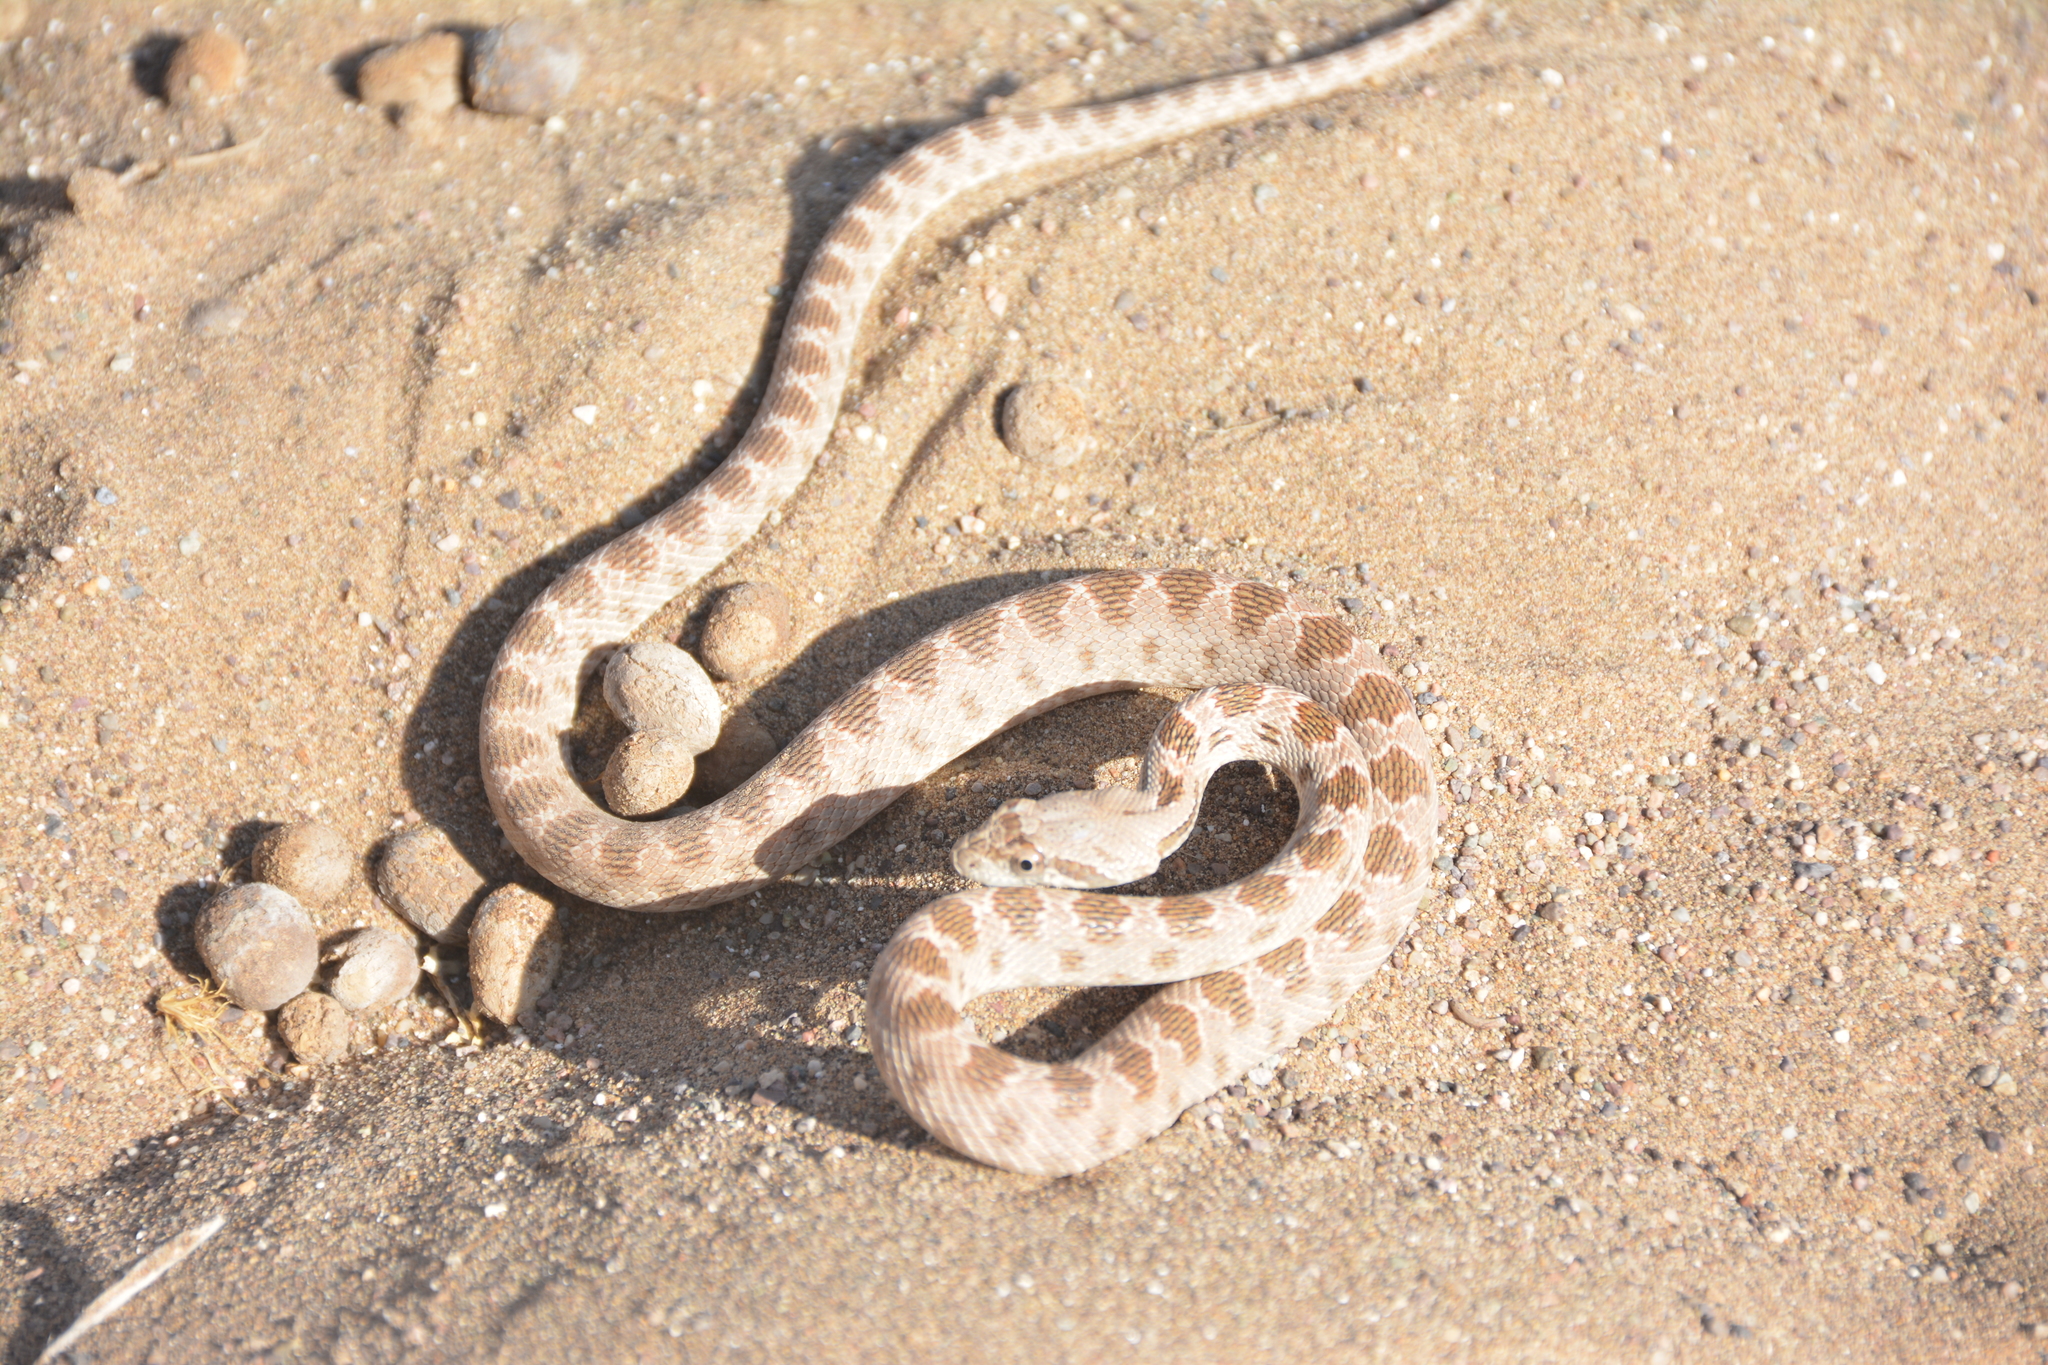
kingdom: Animalia
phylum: Chordata
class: Squamata
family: Colubridae
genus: Spalerosophis
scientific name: Spalerosophis diadema
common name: Diadem snake
